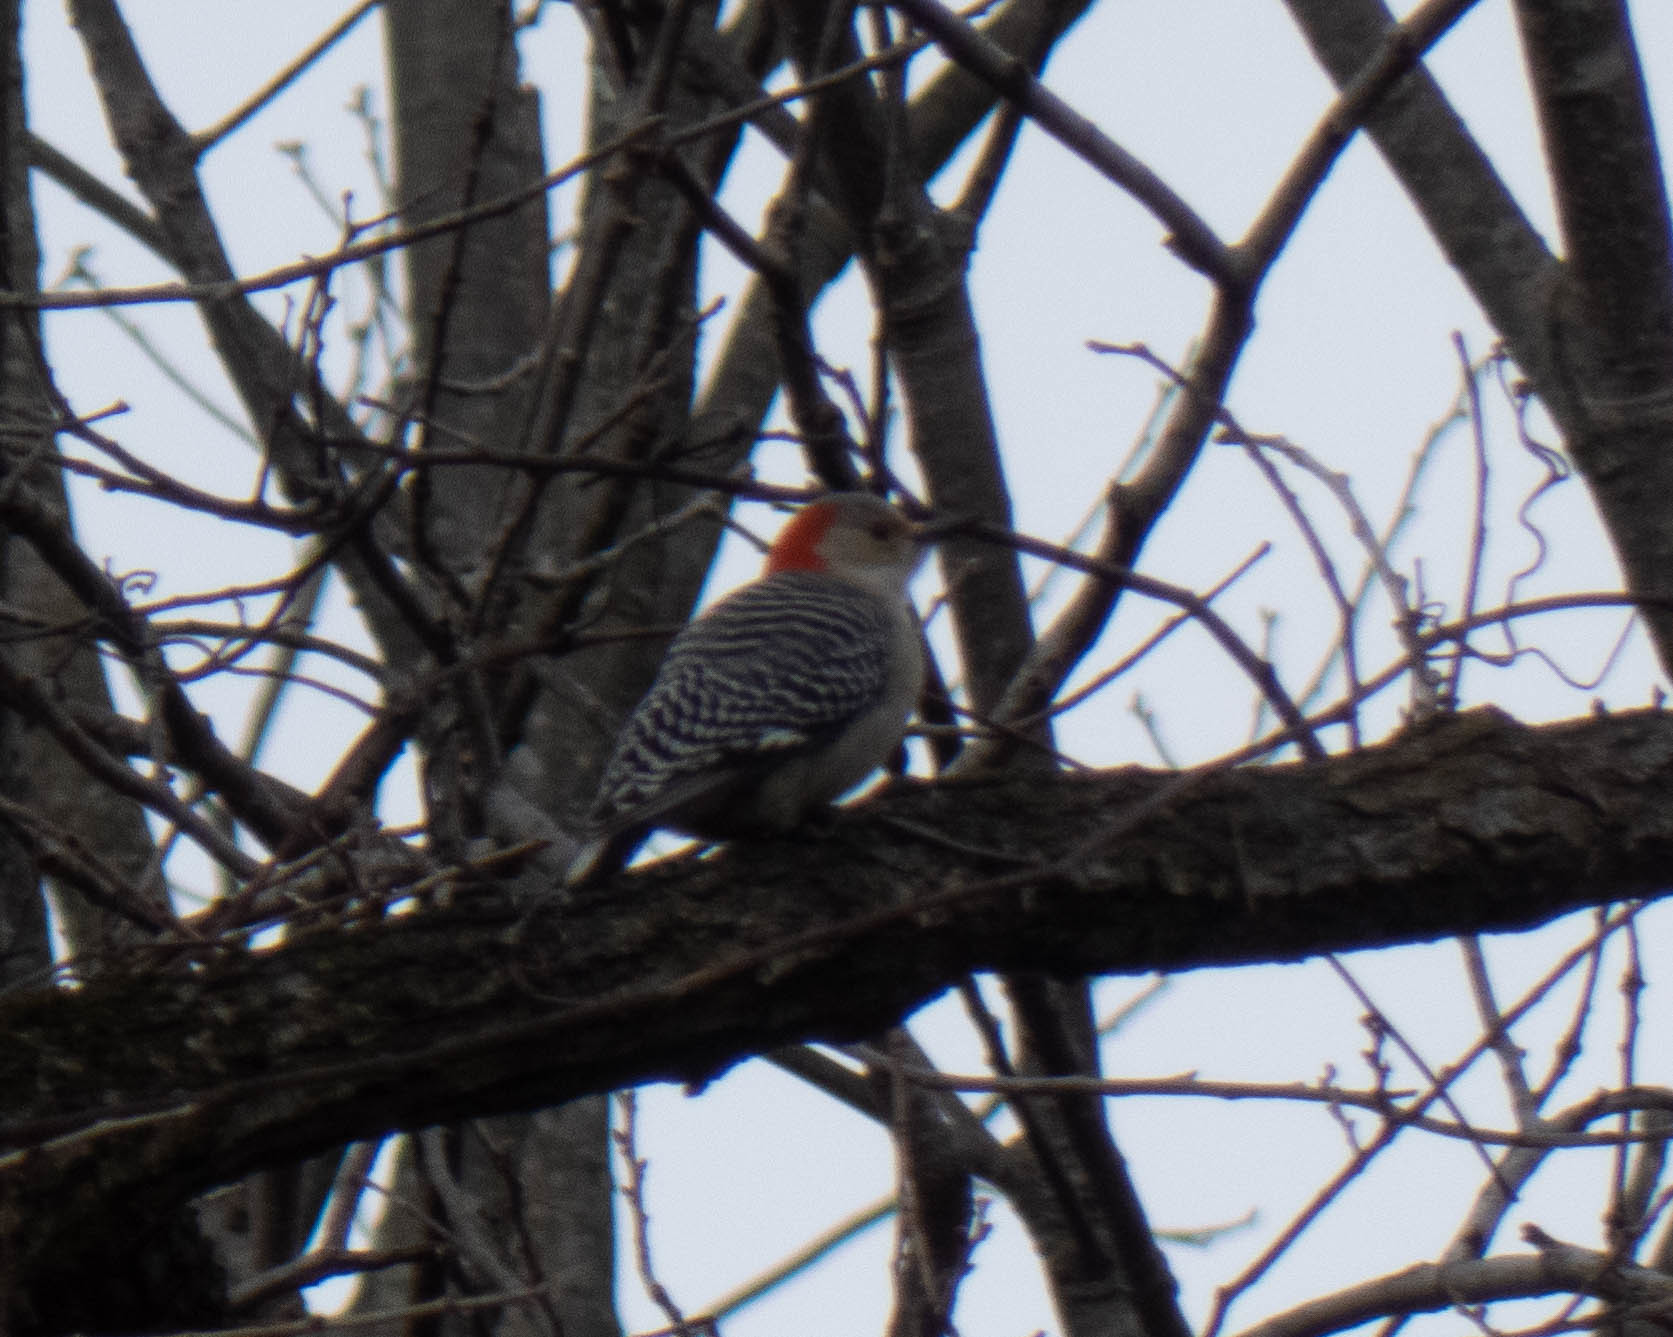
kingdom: Animalia
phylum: Chordata
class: Aves
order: Piciformes
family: Picidae
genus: Melanerpes
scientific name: Melanerpes carolinus
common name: Red-bellied woodpecker
